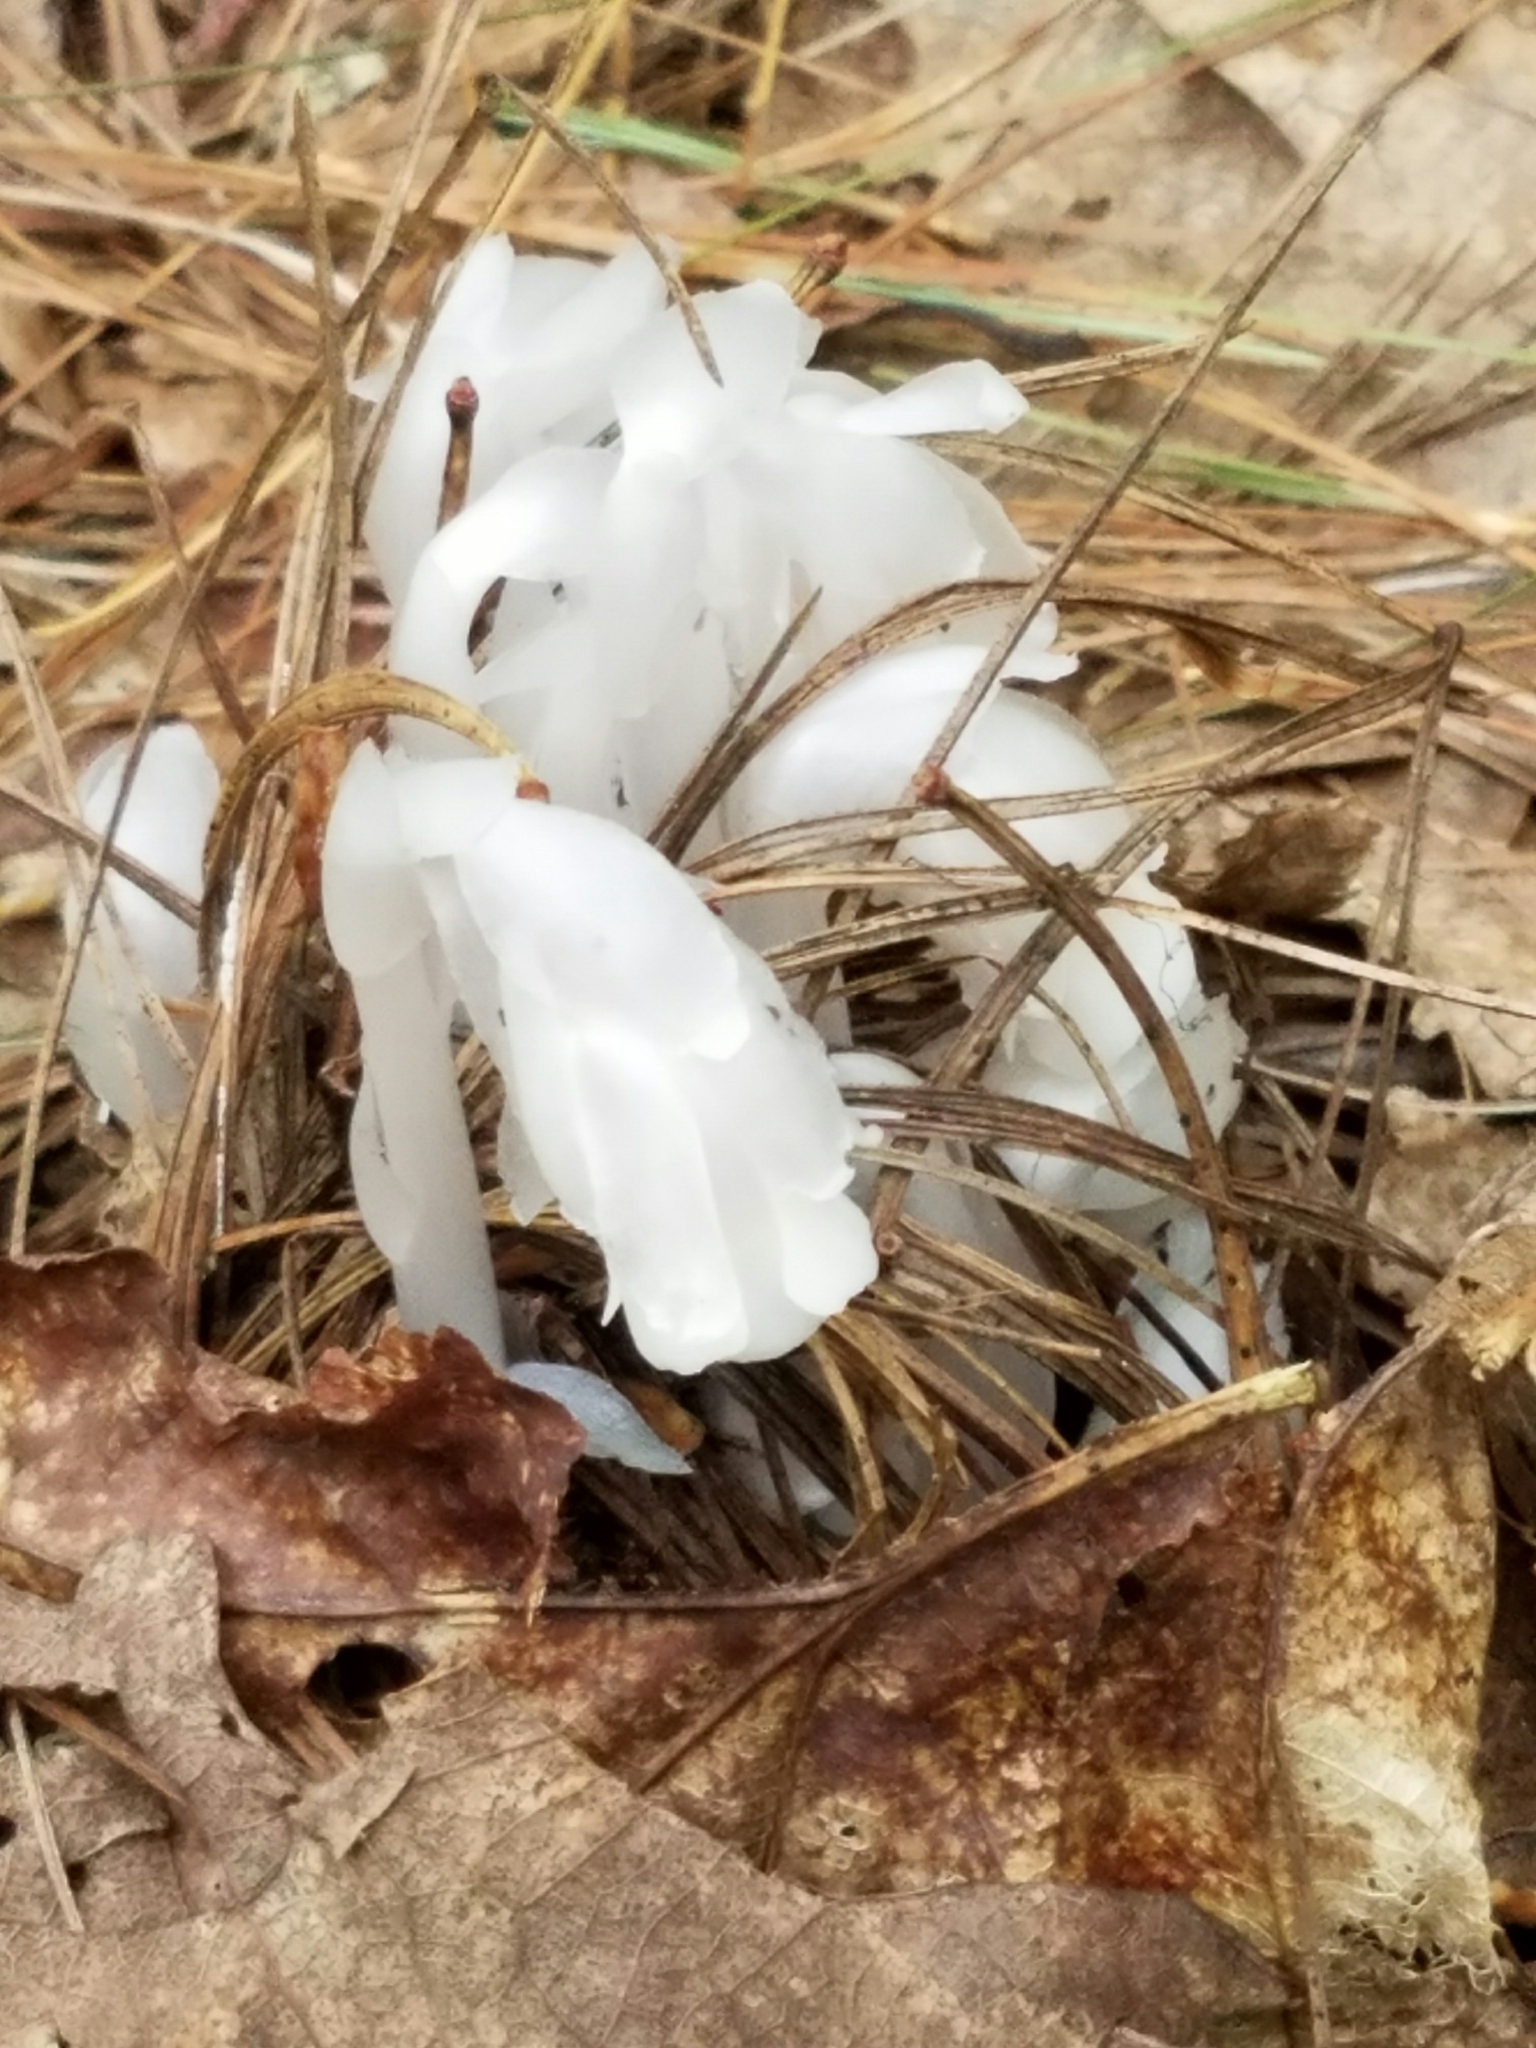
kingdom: Plantae
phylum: Tracheophyta
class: Magnoliopsida
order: Ericales
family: Ericaceae
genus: Monotropa
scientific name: Monotropa uniflora
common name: Convulsion root
